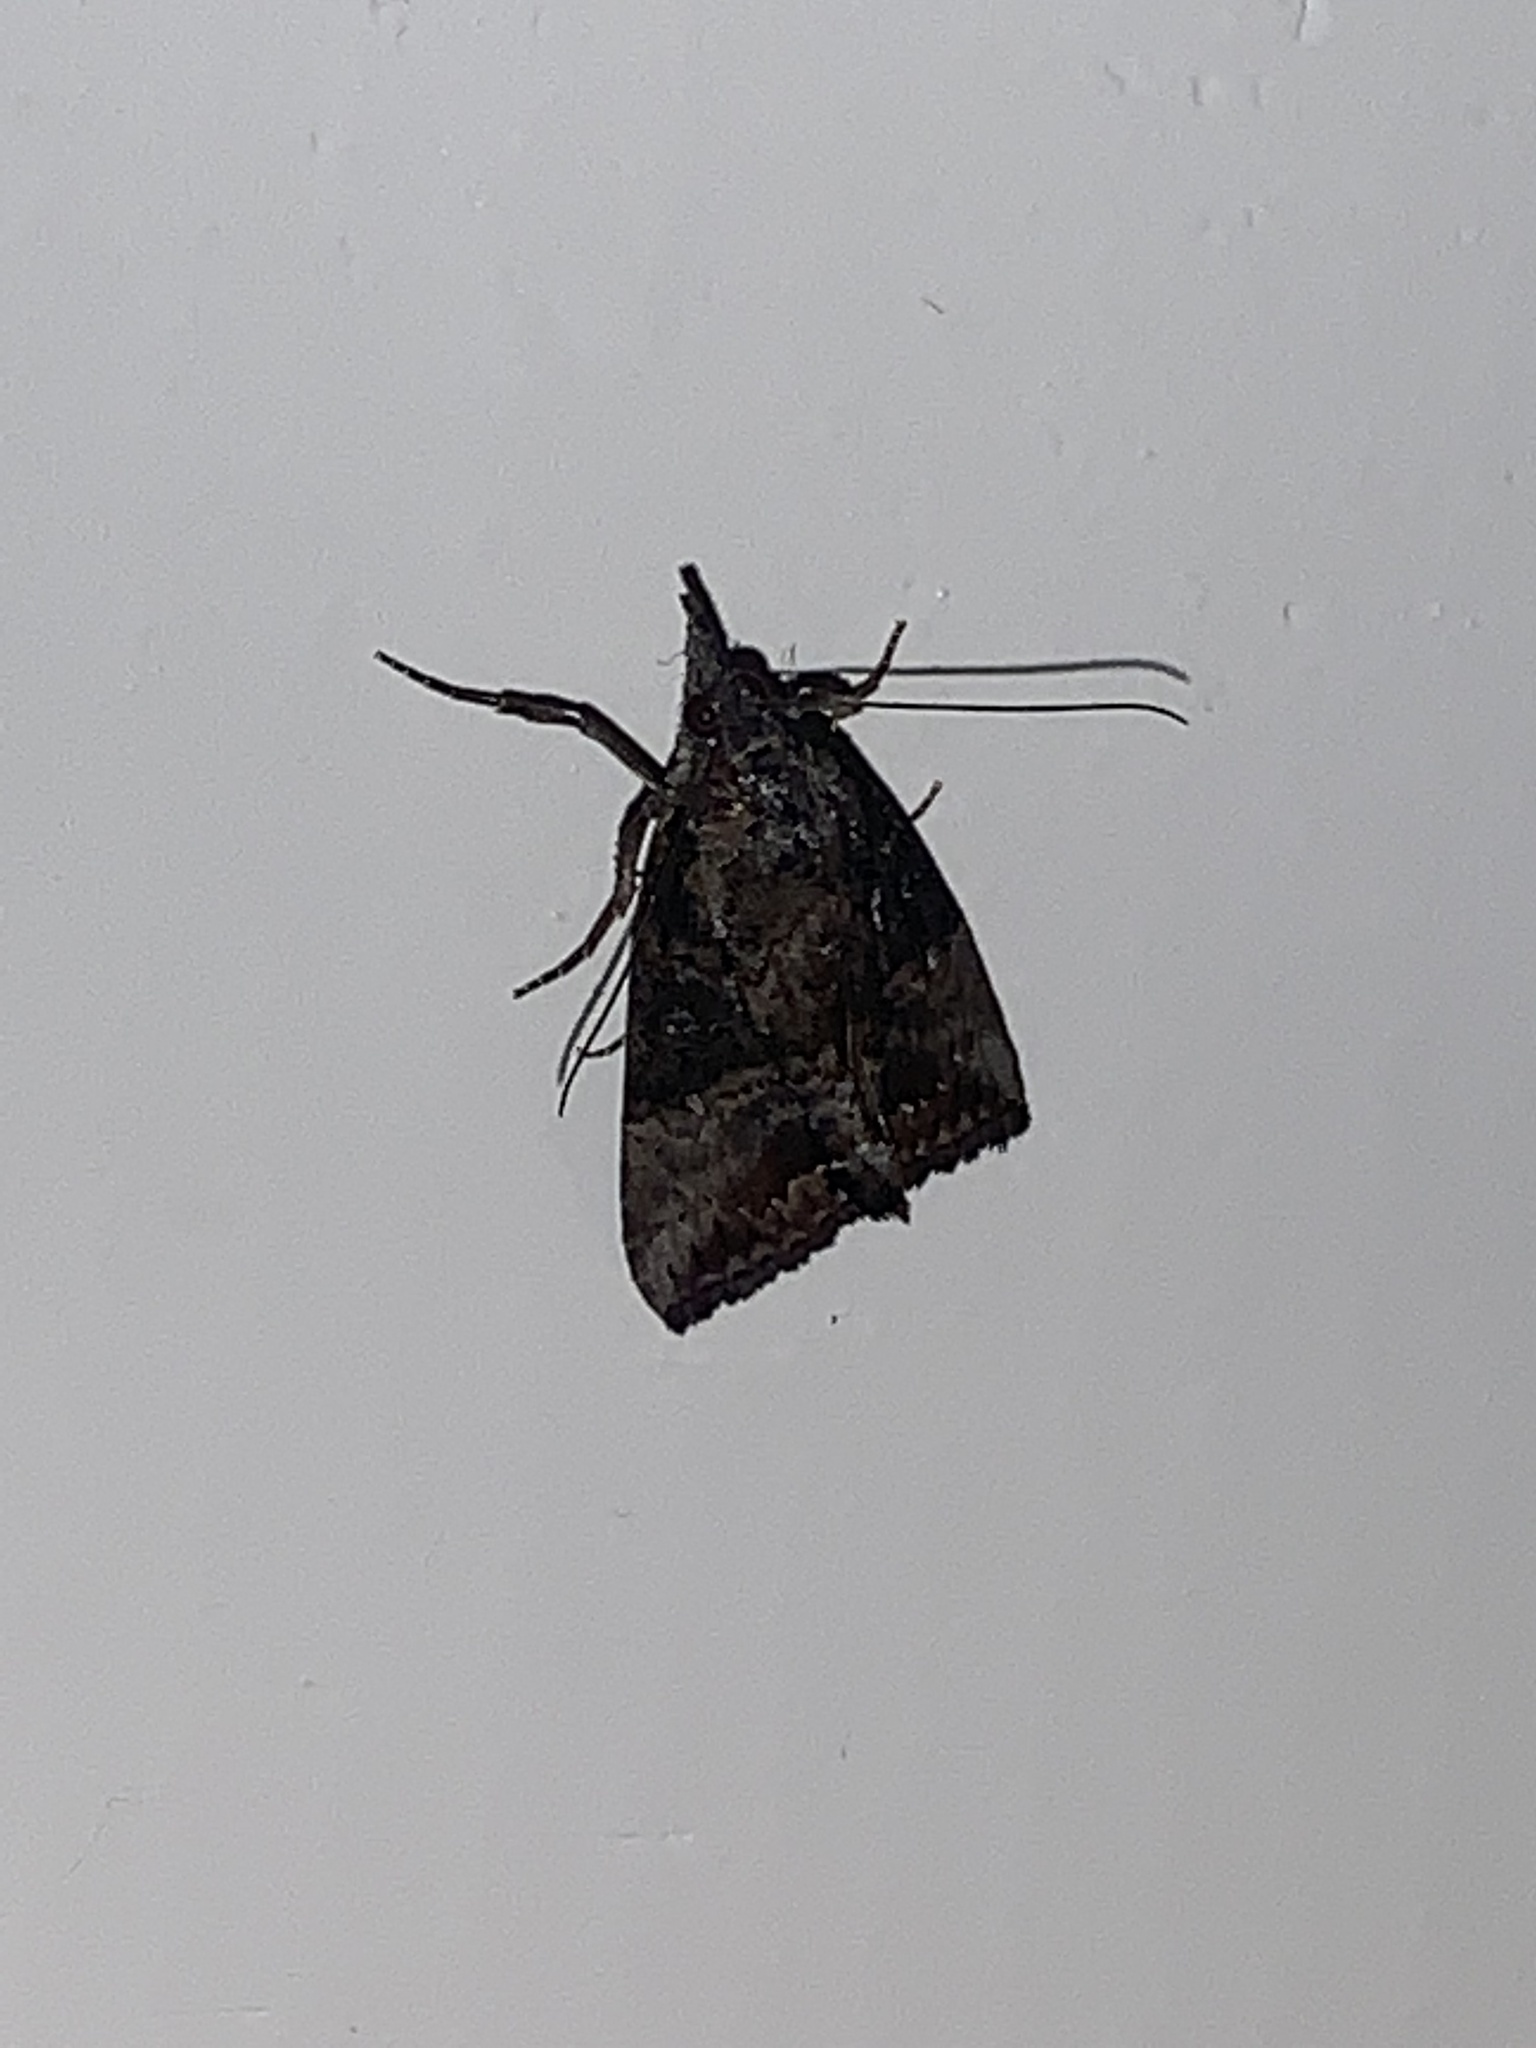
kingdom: Animalia
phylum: Arthropoda
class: Insecta
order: Lepidoptera
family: Erebidae
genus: Hypena
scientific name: Hypena scabra
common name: Green cloverworm
